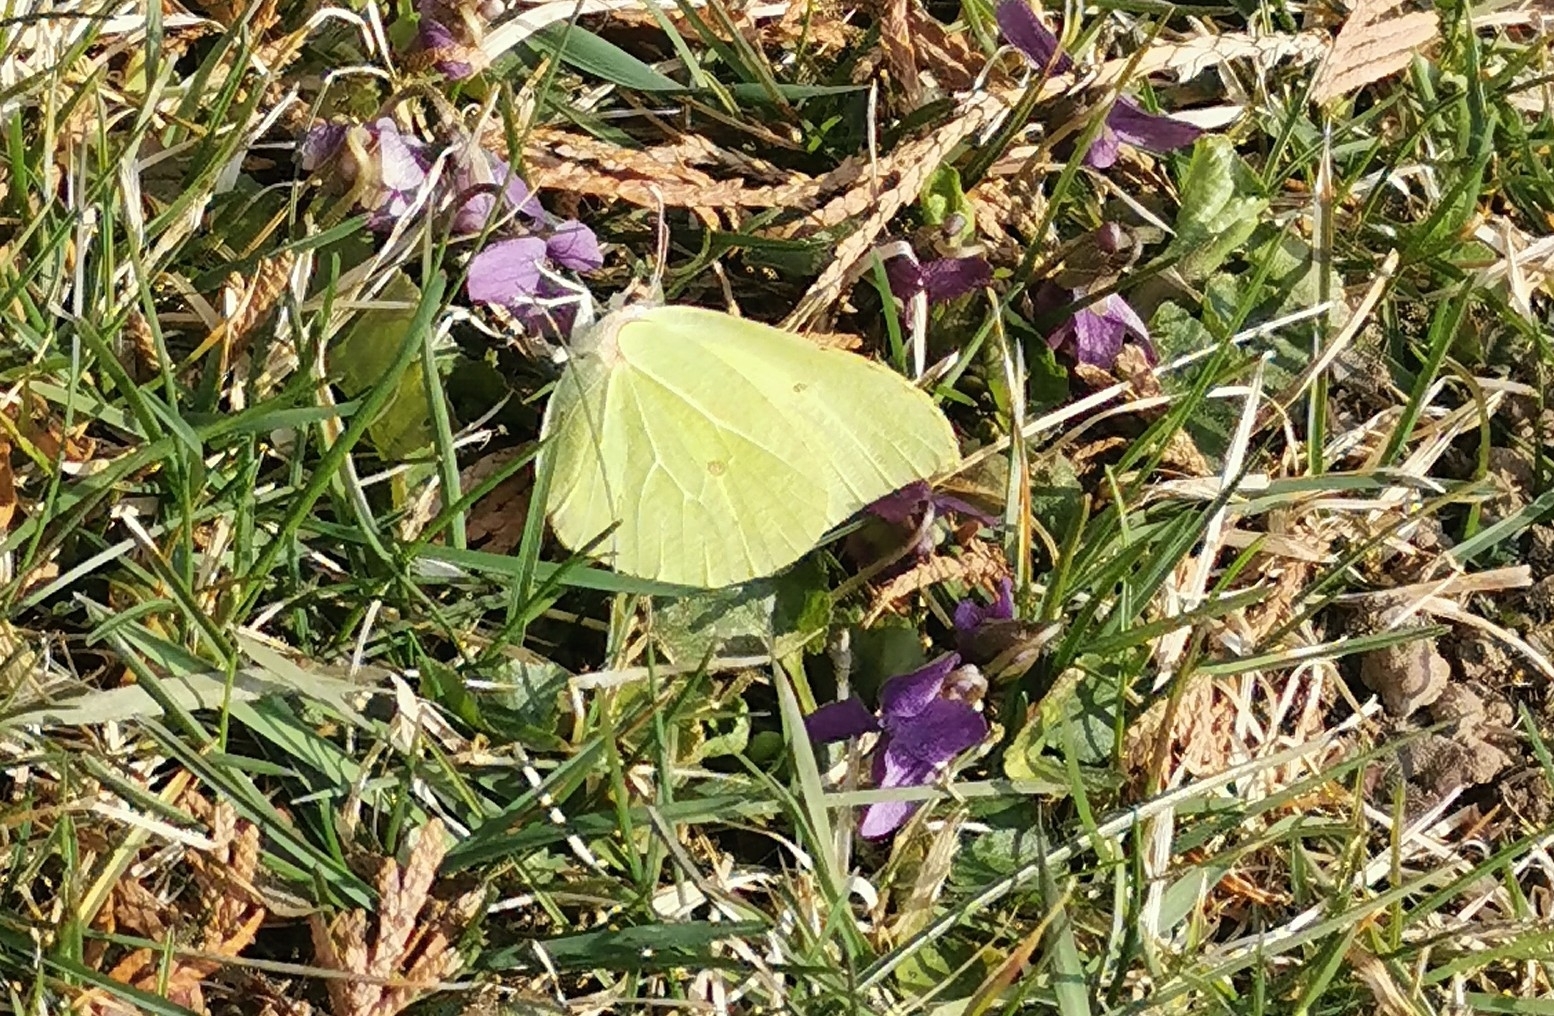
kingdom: Animalia
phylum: Arthropoda
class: Insecta
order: Lepidoptera
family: Pieridae
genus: Gonepteryx
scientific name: Gonepteryx rhamni
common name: Brimstone
